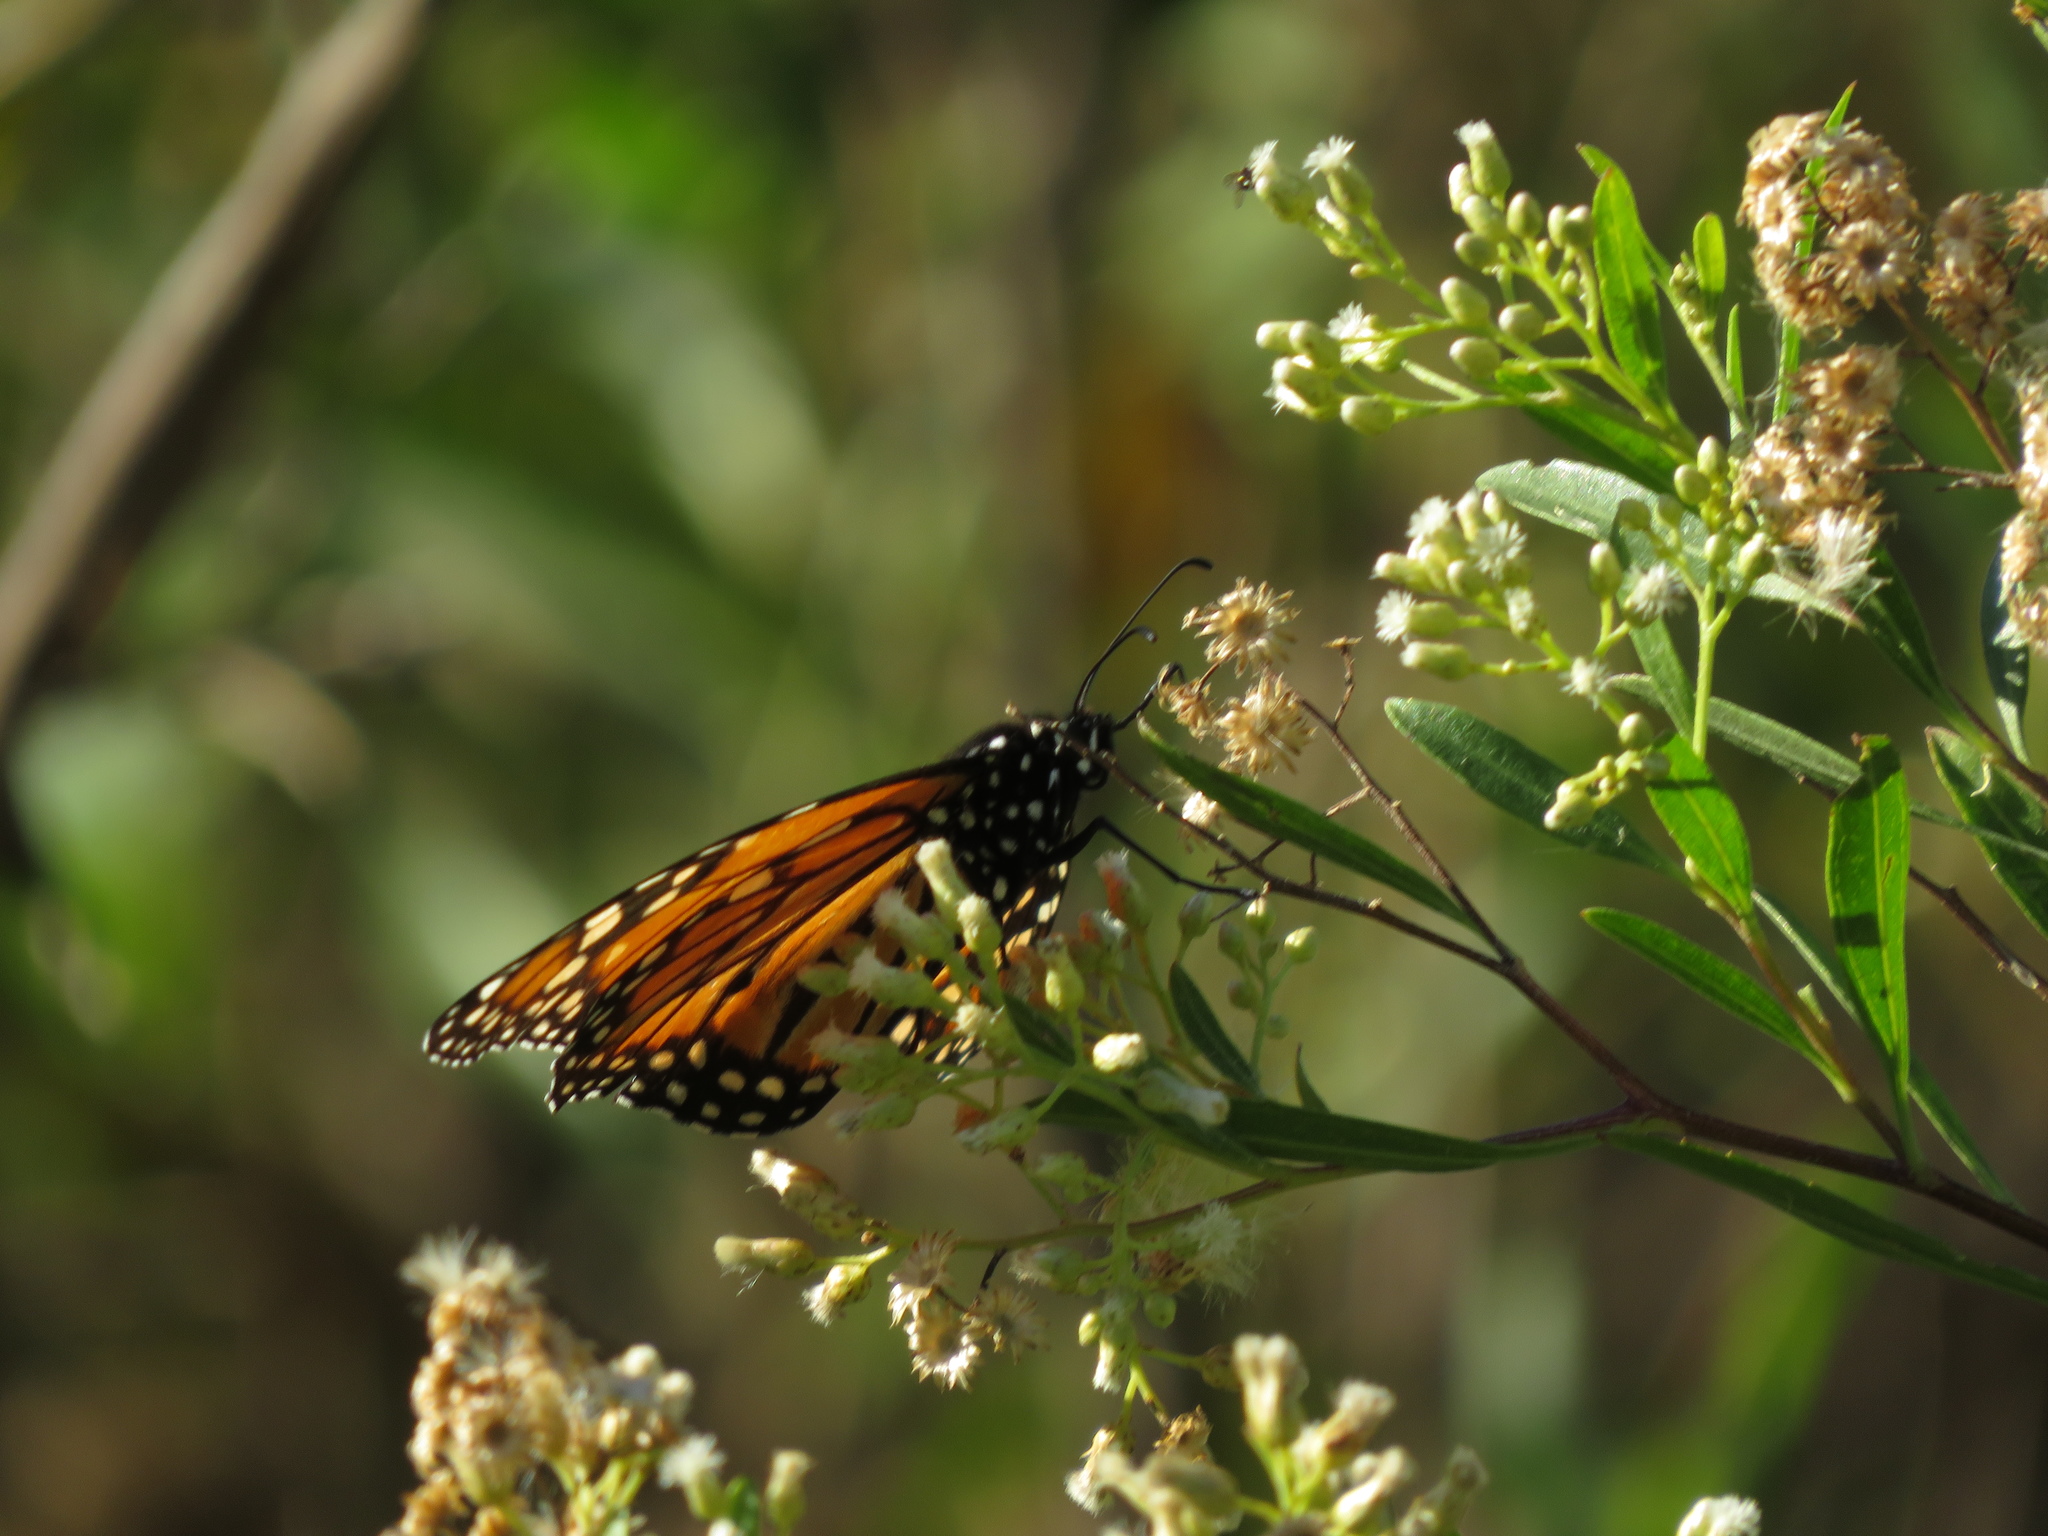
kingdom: Animalia
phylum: Arthropoda
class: Insecta
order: Lepidoptera
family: Nymphalidae
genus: Danaus
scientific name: Danaus erippus
